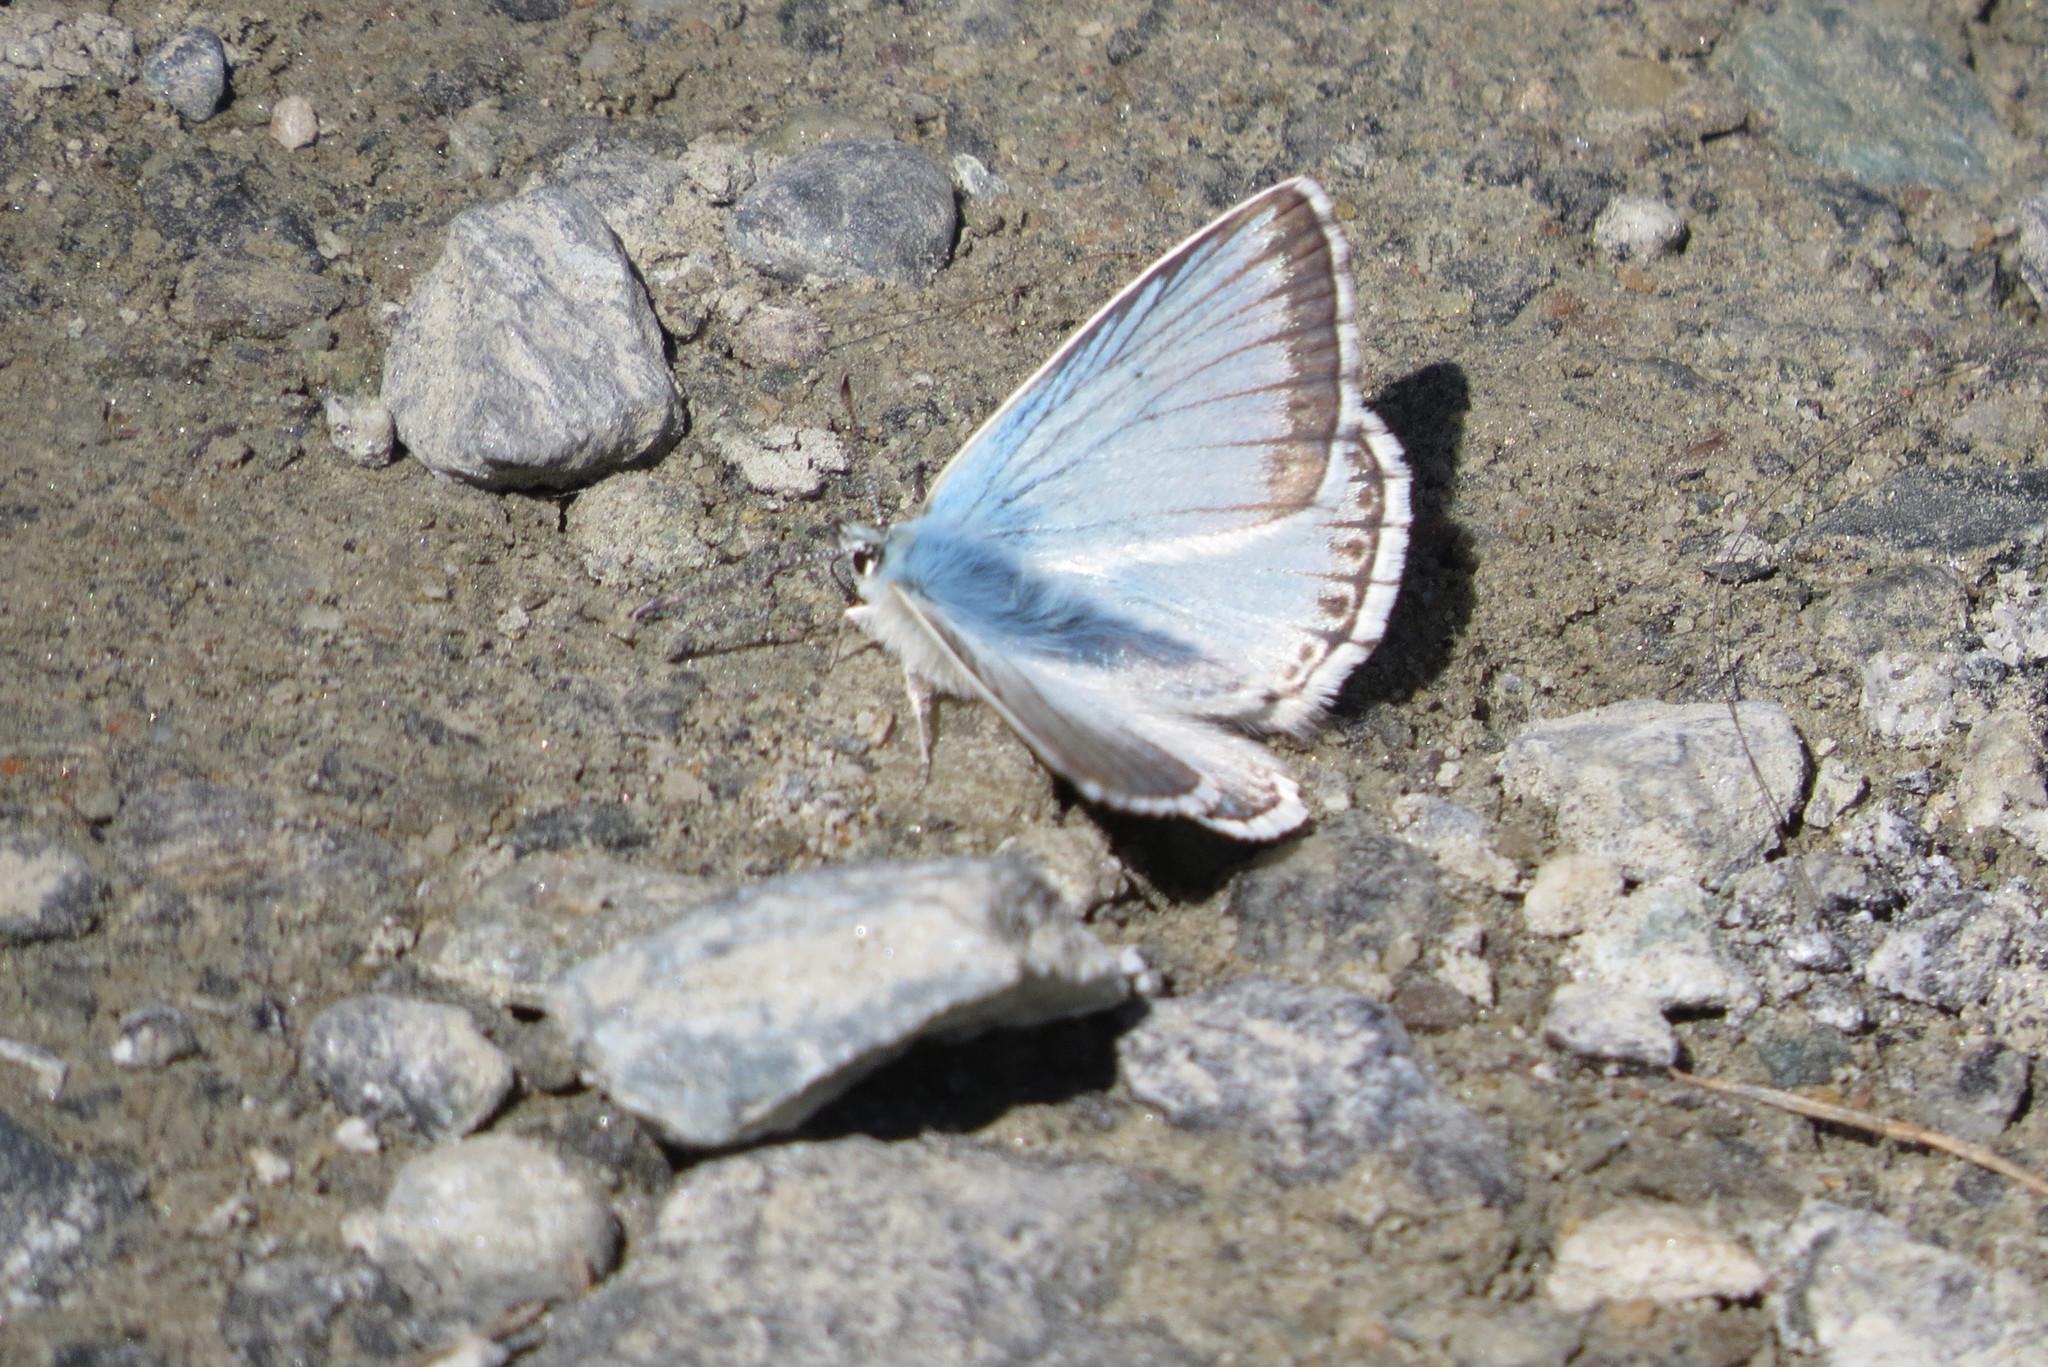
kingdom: Animalia
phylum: Arthropoda
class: Insecta
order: Lepidoptera
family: Lycaenidae
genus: Lysandra
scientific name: Lysandra coridon
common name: Chalkhill blue
